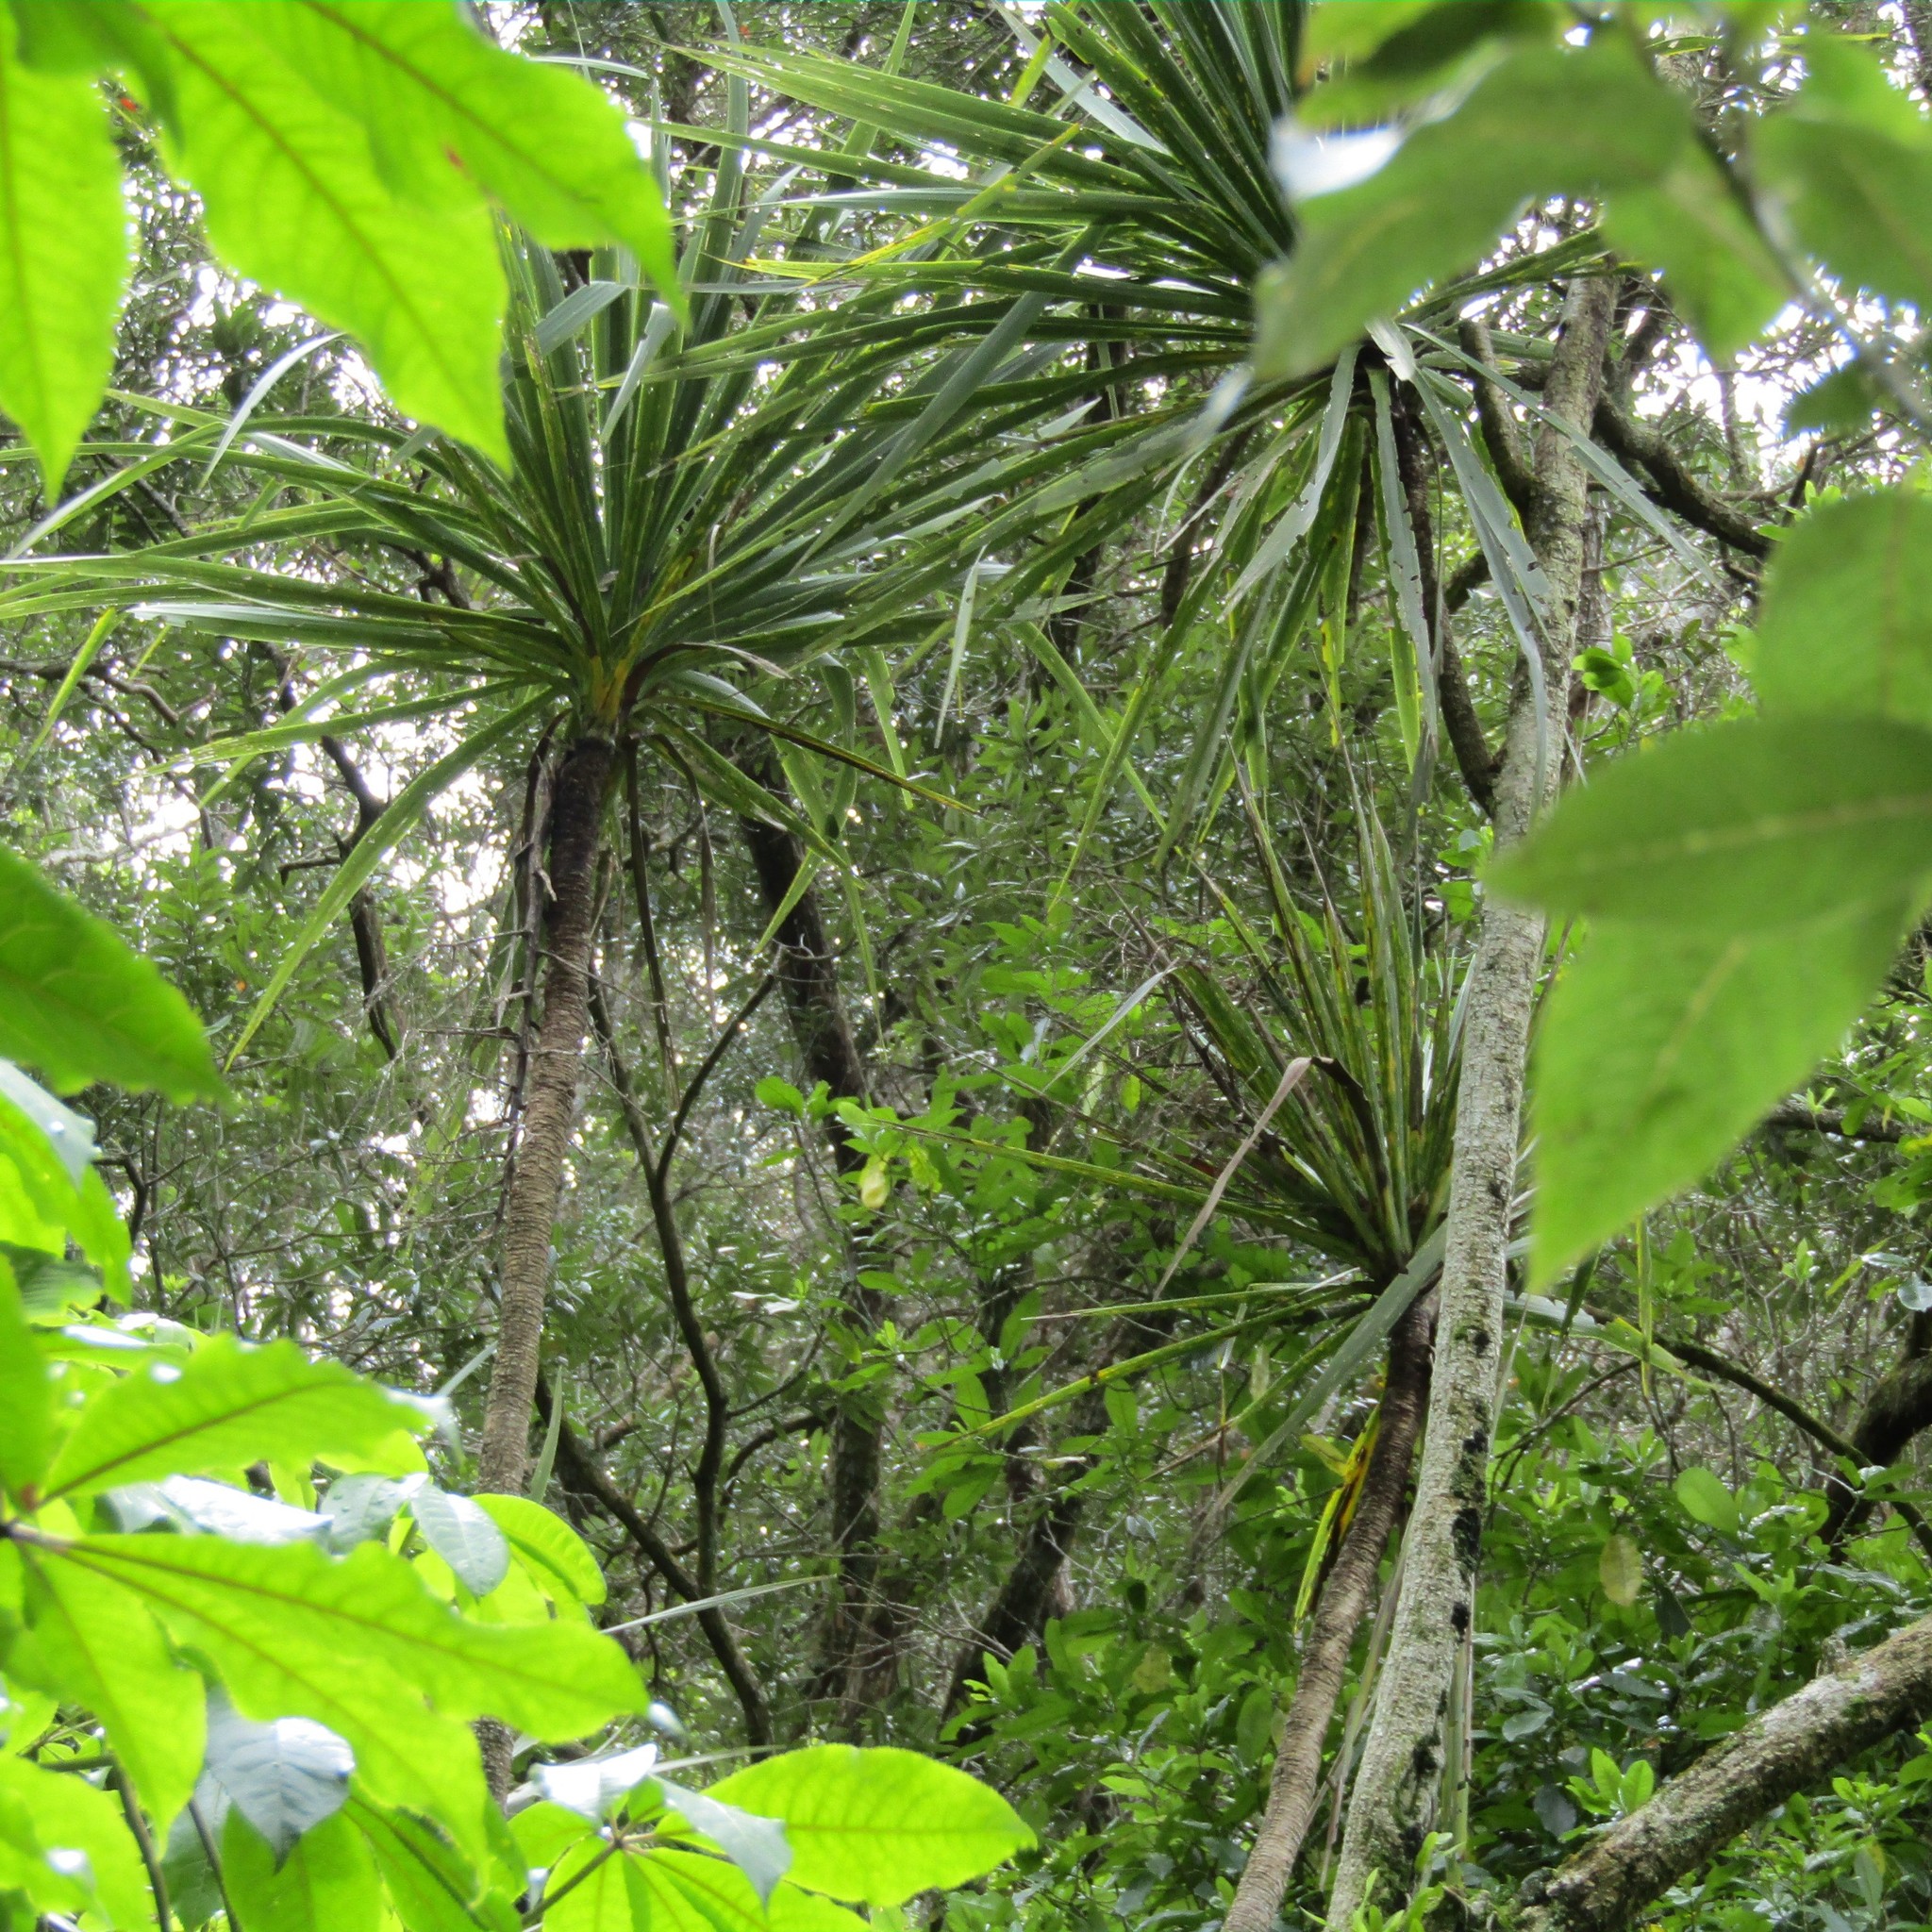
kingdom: Plantae
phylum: Tracheophyta
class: Liliopsida
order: Asparagales
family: Asparagaceae
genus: Cordyline
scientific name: Cordyline australis
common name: Cabbage-palm
